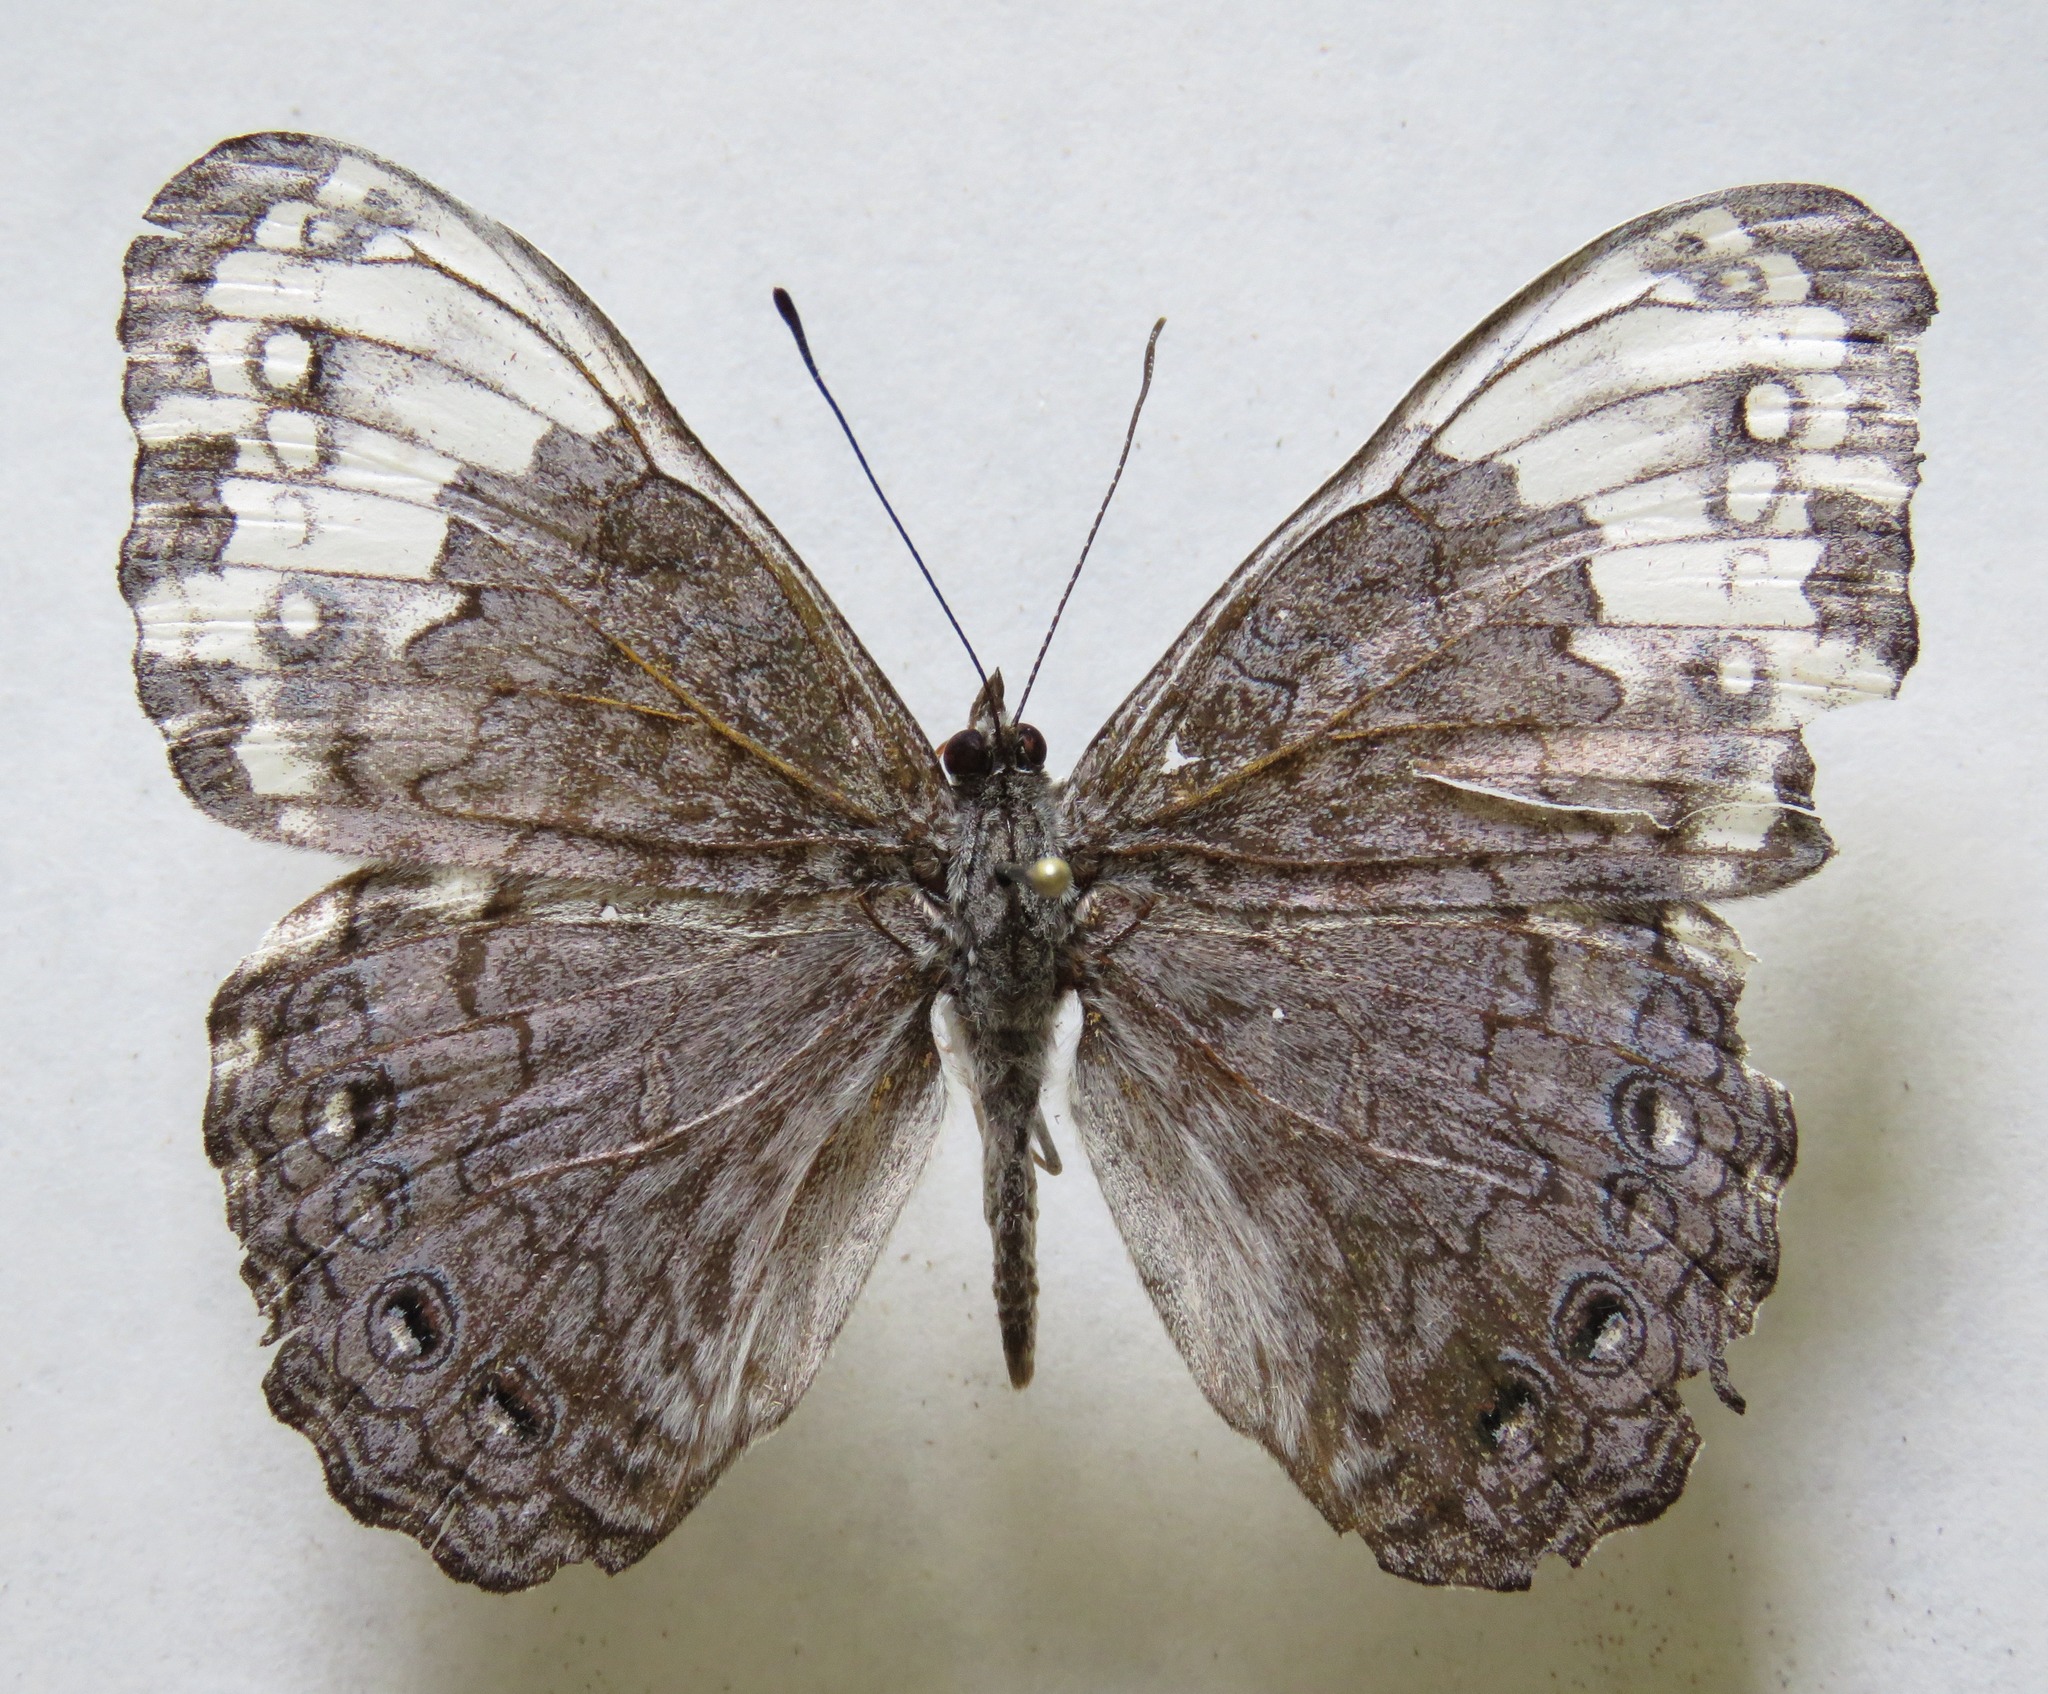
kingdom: Animalia
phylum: Arthropoda
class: Insecta
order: Lepidoptera
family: Nymphalidae
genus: Hamadryas
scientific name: Hamadryas glauconome
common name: Glaucous cracker
